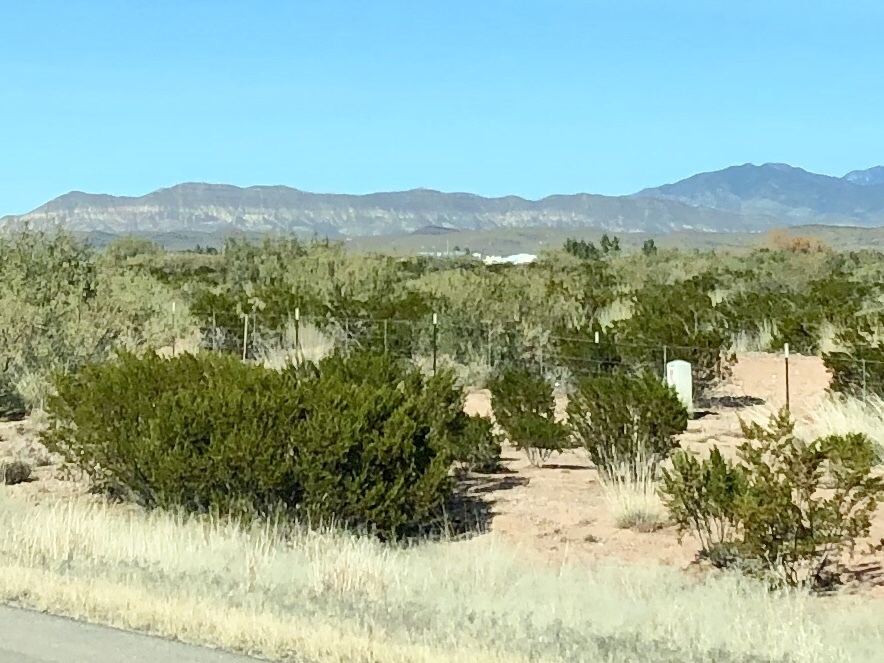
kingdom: Plantae
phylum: Tracheophyta
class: Magnoliopsida
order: Zygophyllales
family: Zygophyllaceae
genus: Larrea
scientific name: Larrea tridentata
